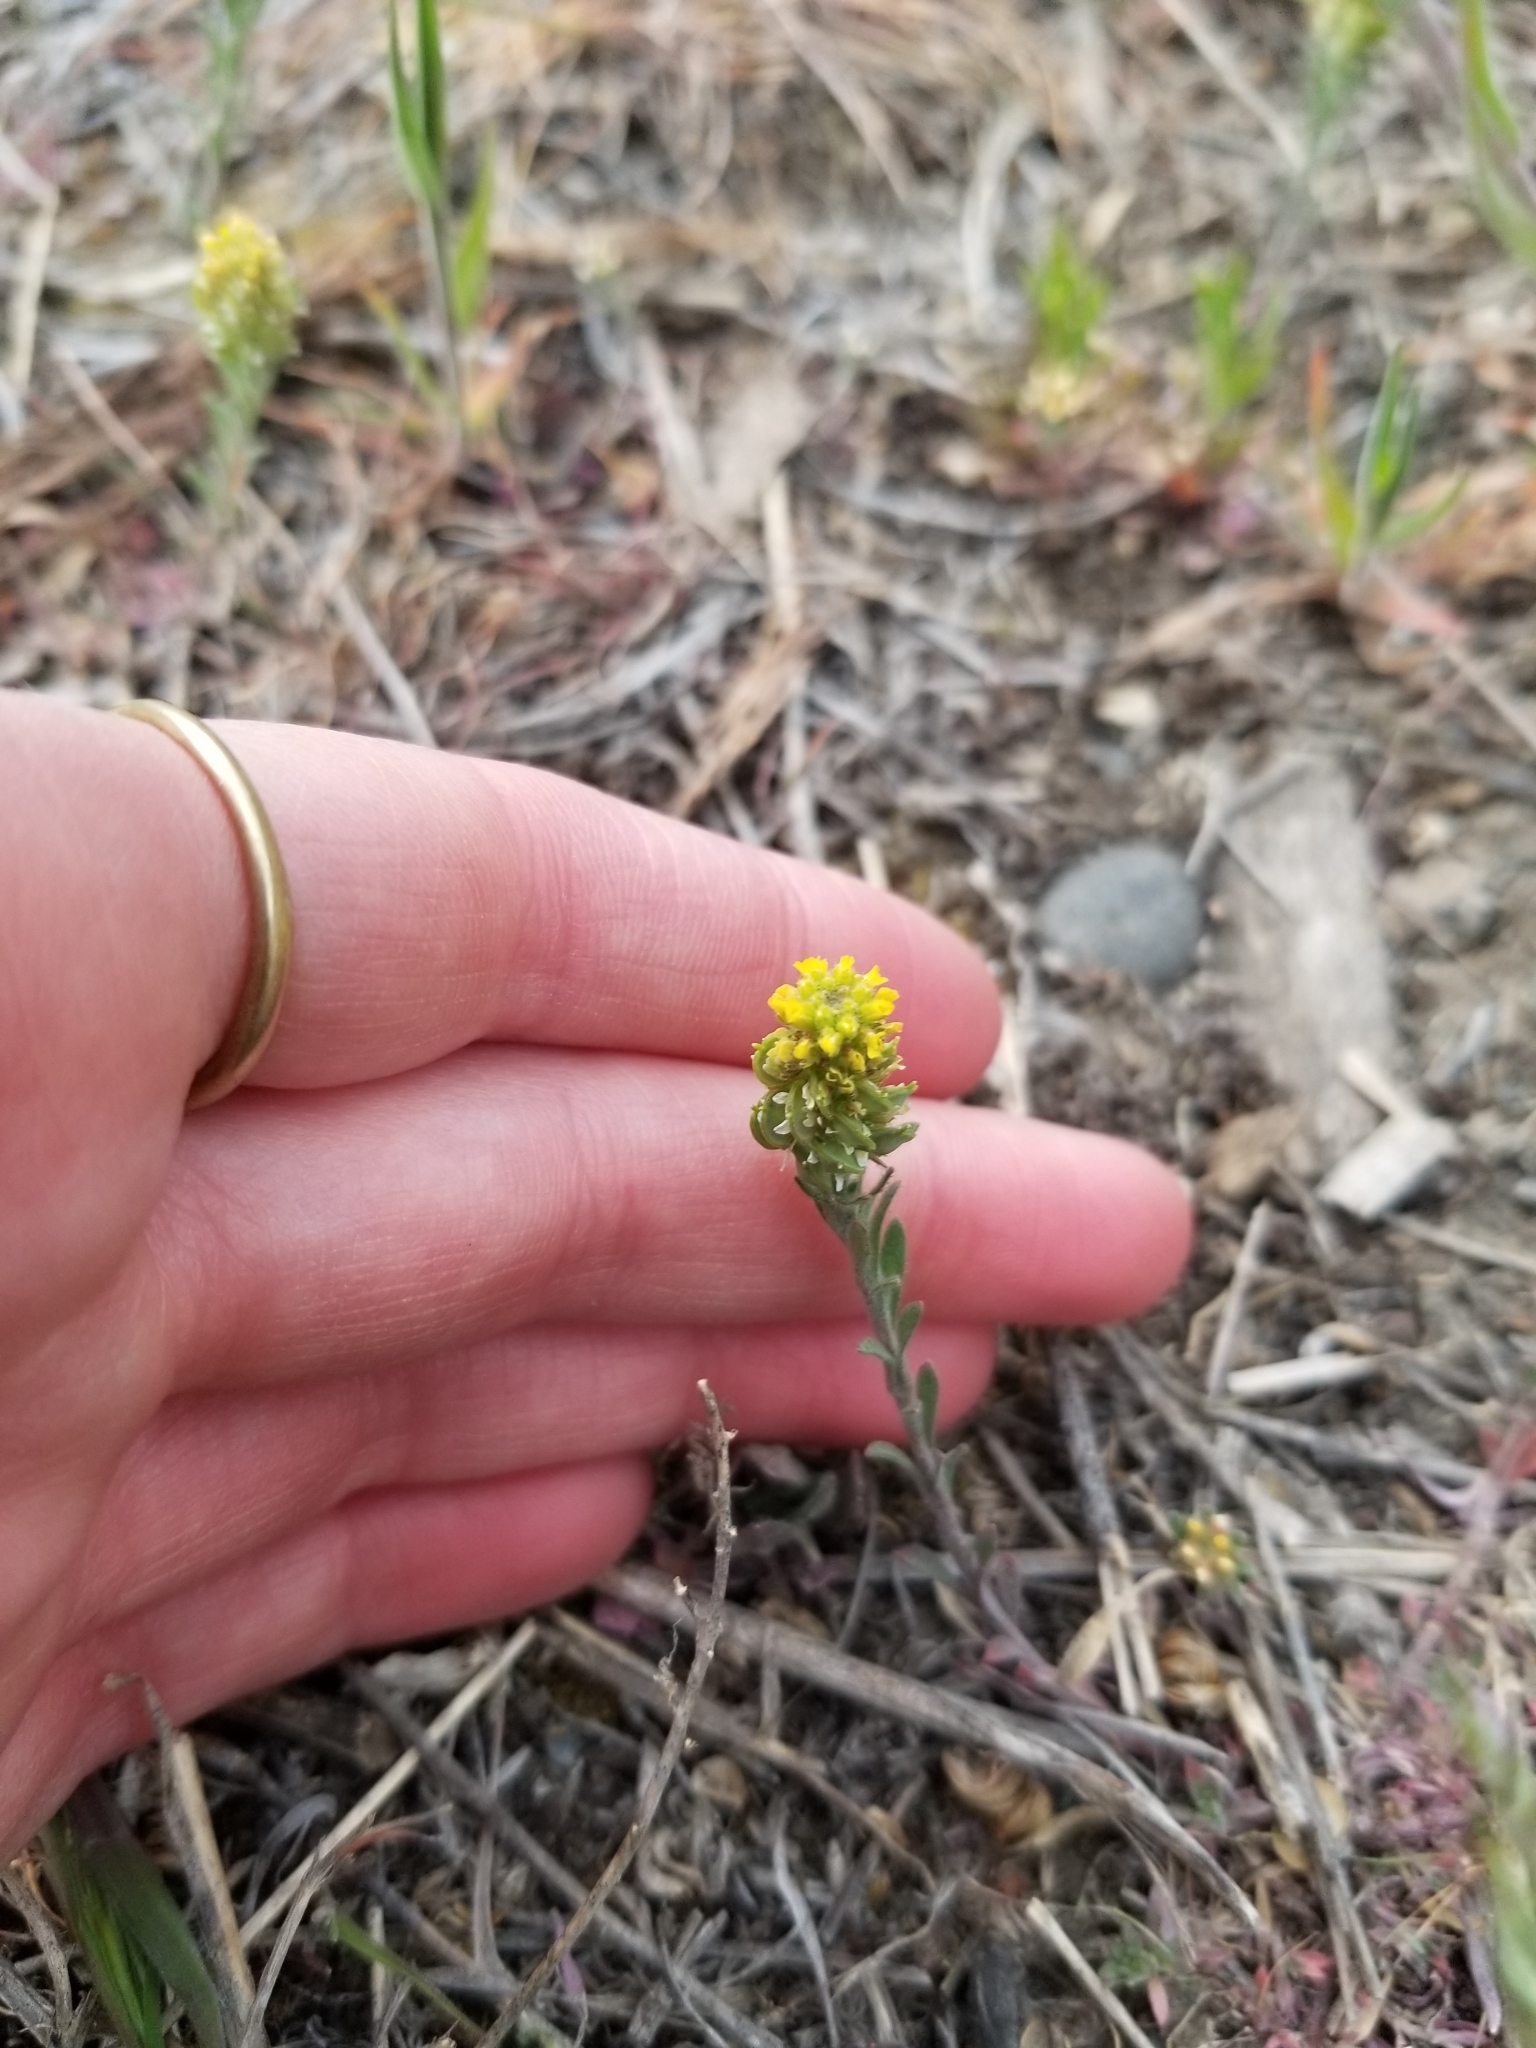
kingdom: Plantae
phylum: Tracheophyta
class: Magnoliopsida
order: Brassicales
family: Brassicaceae
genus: Alyssum
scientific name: Alyssum turkestanicum
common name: Desert alyssum
